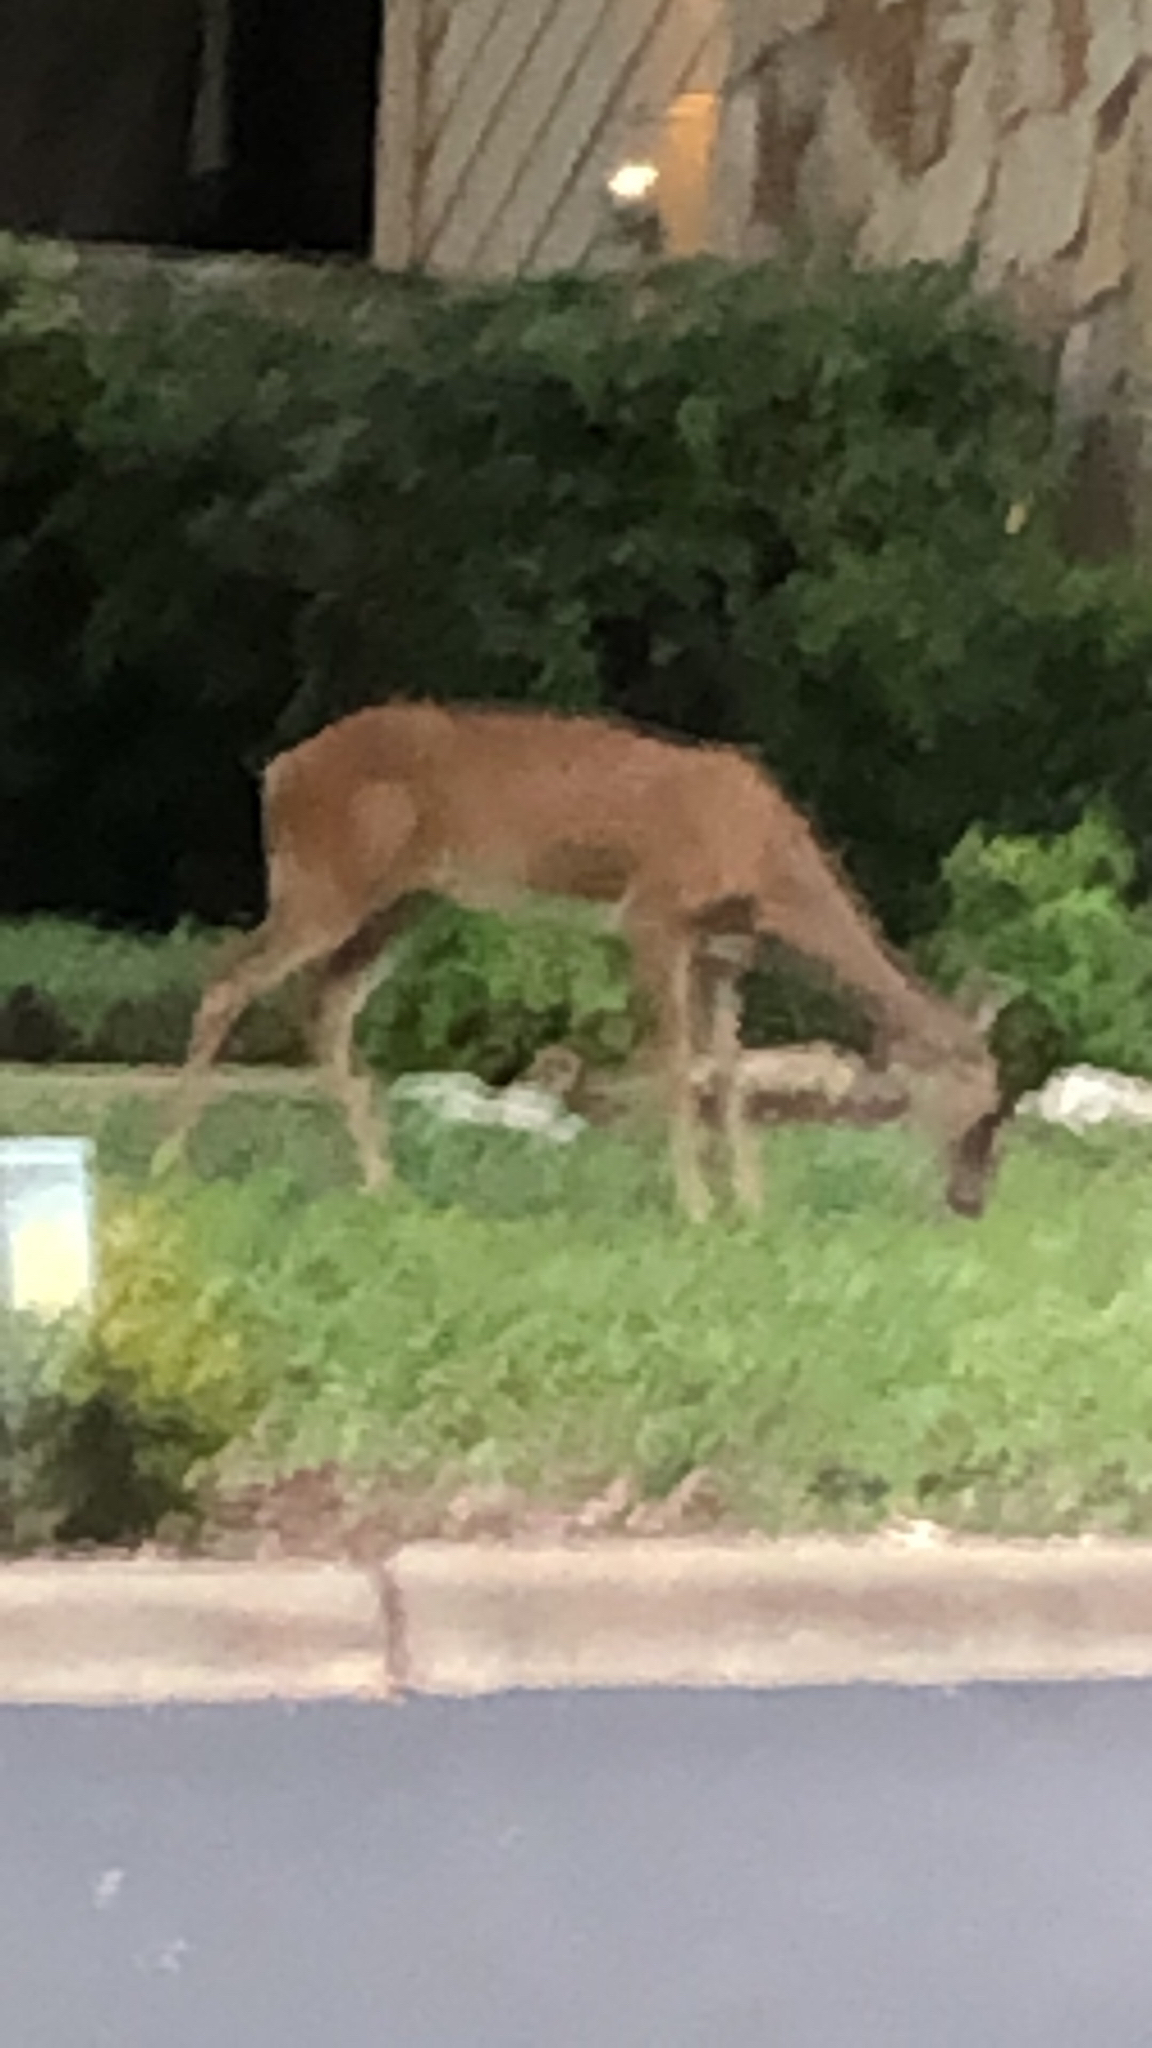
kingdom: Animalia
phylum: Chordata
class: Mammalia
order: Artiodactyla
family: Cervidae
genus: Odocoileus
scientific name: Odocoileus virginianus
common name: White-tailed deer
